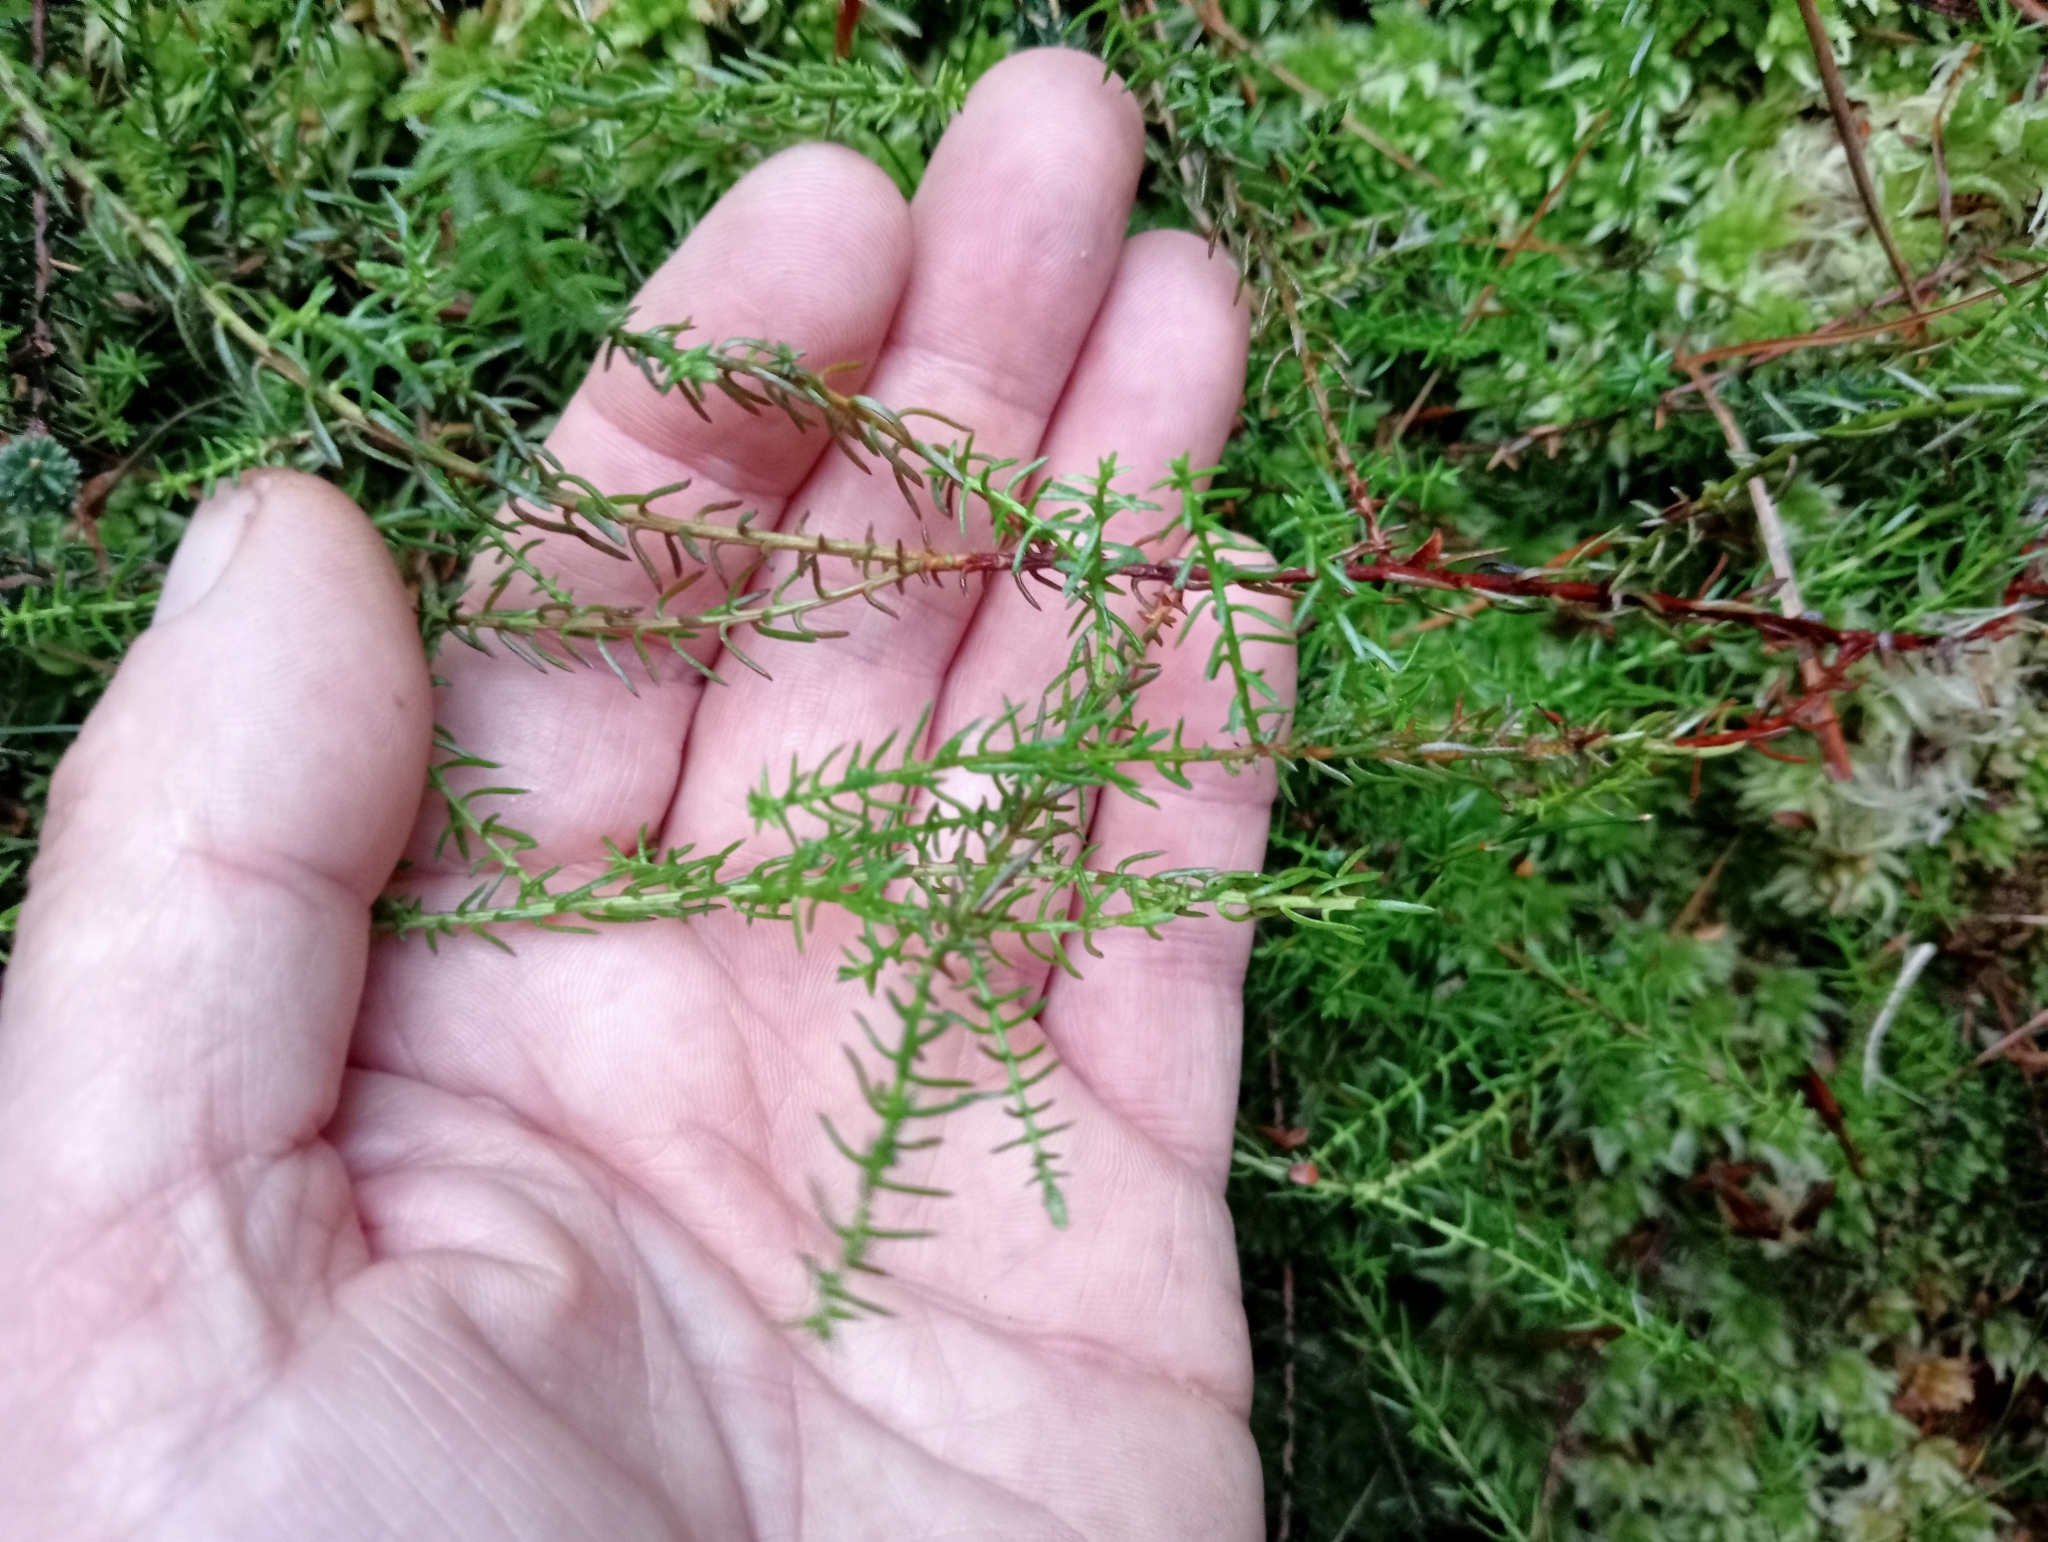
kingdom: Plantae
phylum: Tracheophyta
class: Pinopsida
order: Pinales
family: Podocarpaceae
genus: Lepidothamnus
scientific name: Lepidothamnus laxifolius
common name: Pygmy pine
